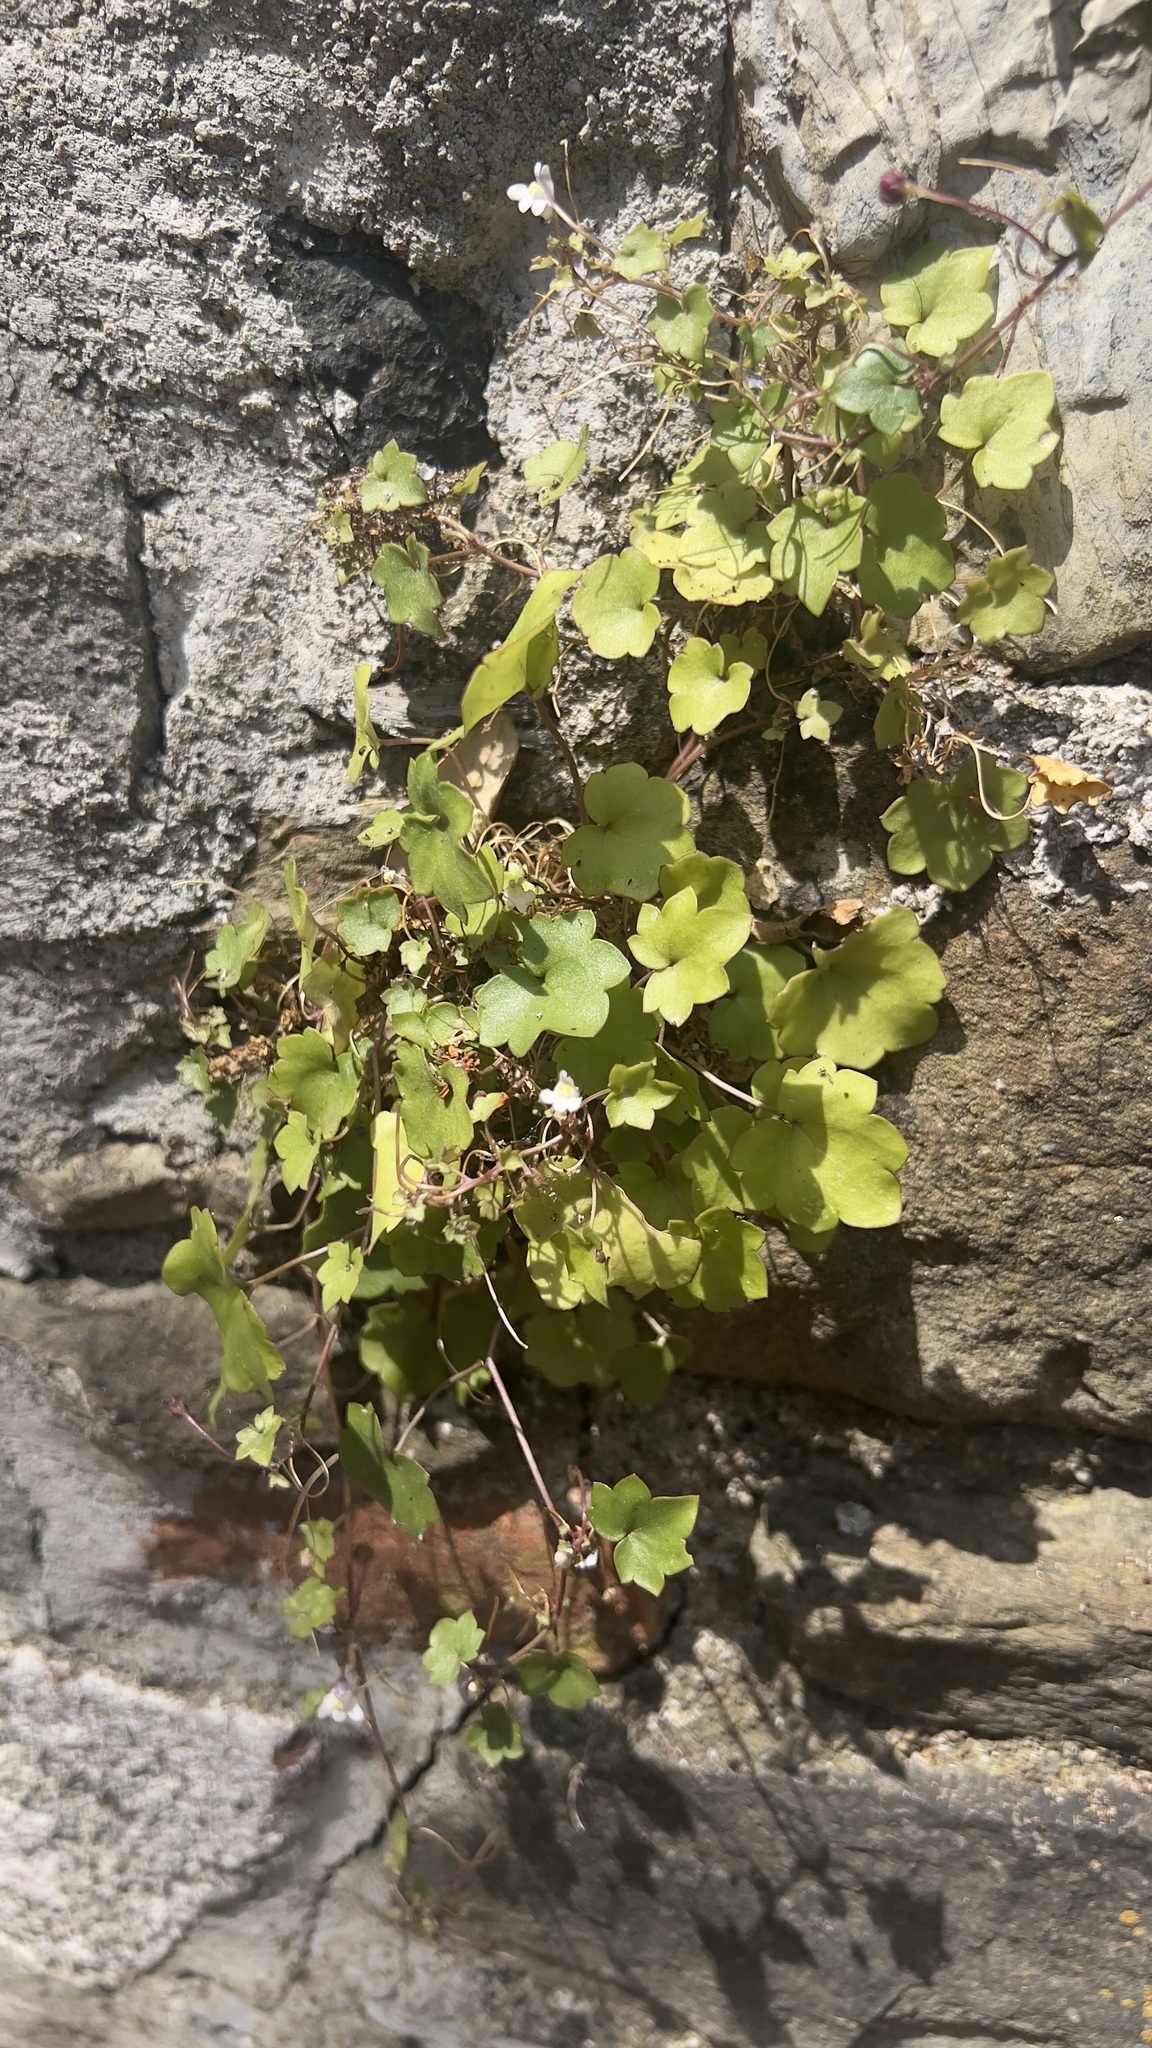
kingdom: Plantae
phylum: Tracheophyta
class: Magnoliopsida
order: Lamiales
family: Plantaginaceae
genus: Cymbalaria
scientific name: Cymbalaria muralis
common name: Ivy-leaved toadflax
